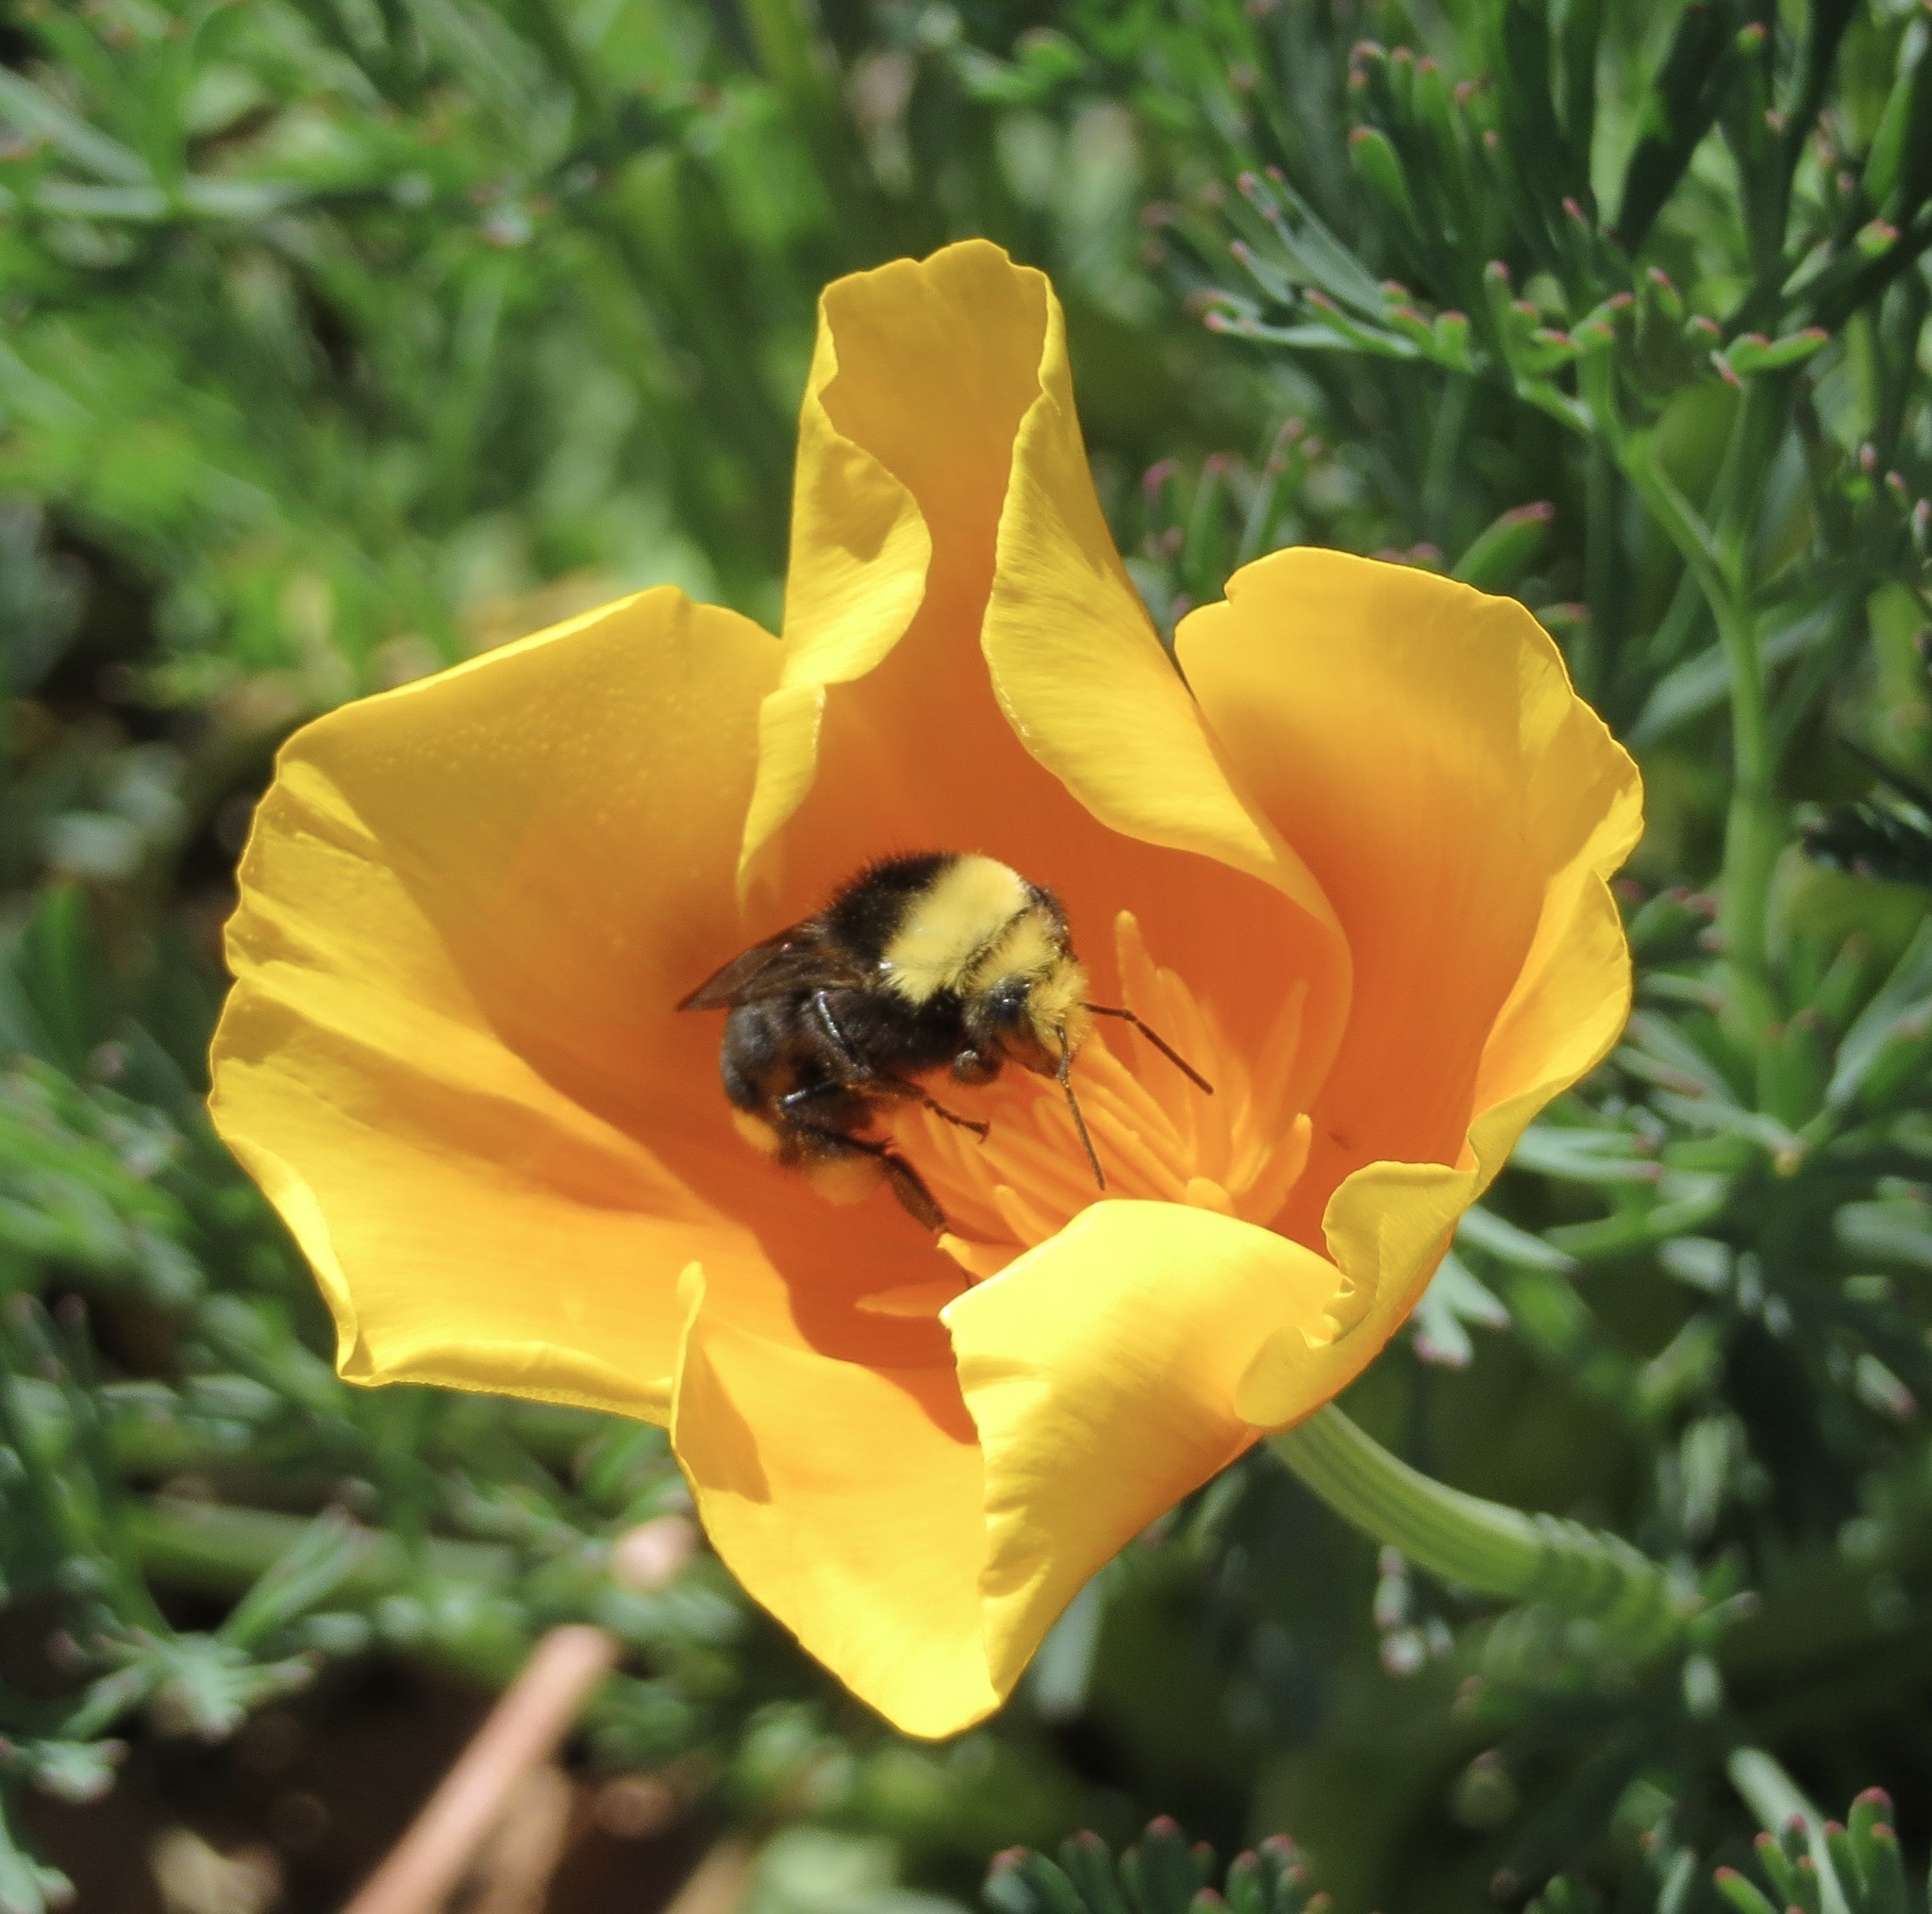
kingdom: Animalia
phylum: Arthropoda
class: Insecta
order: Hymenoptera
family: Apidae
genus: Bombus
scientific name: Bombus vosnesenskii
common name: Vosnesensky bumble bee
